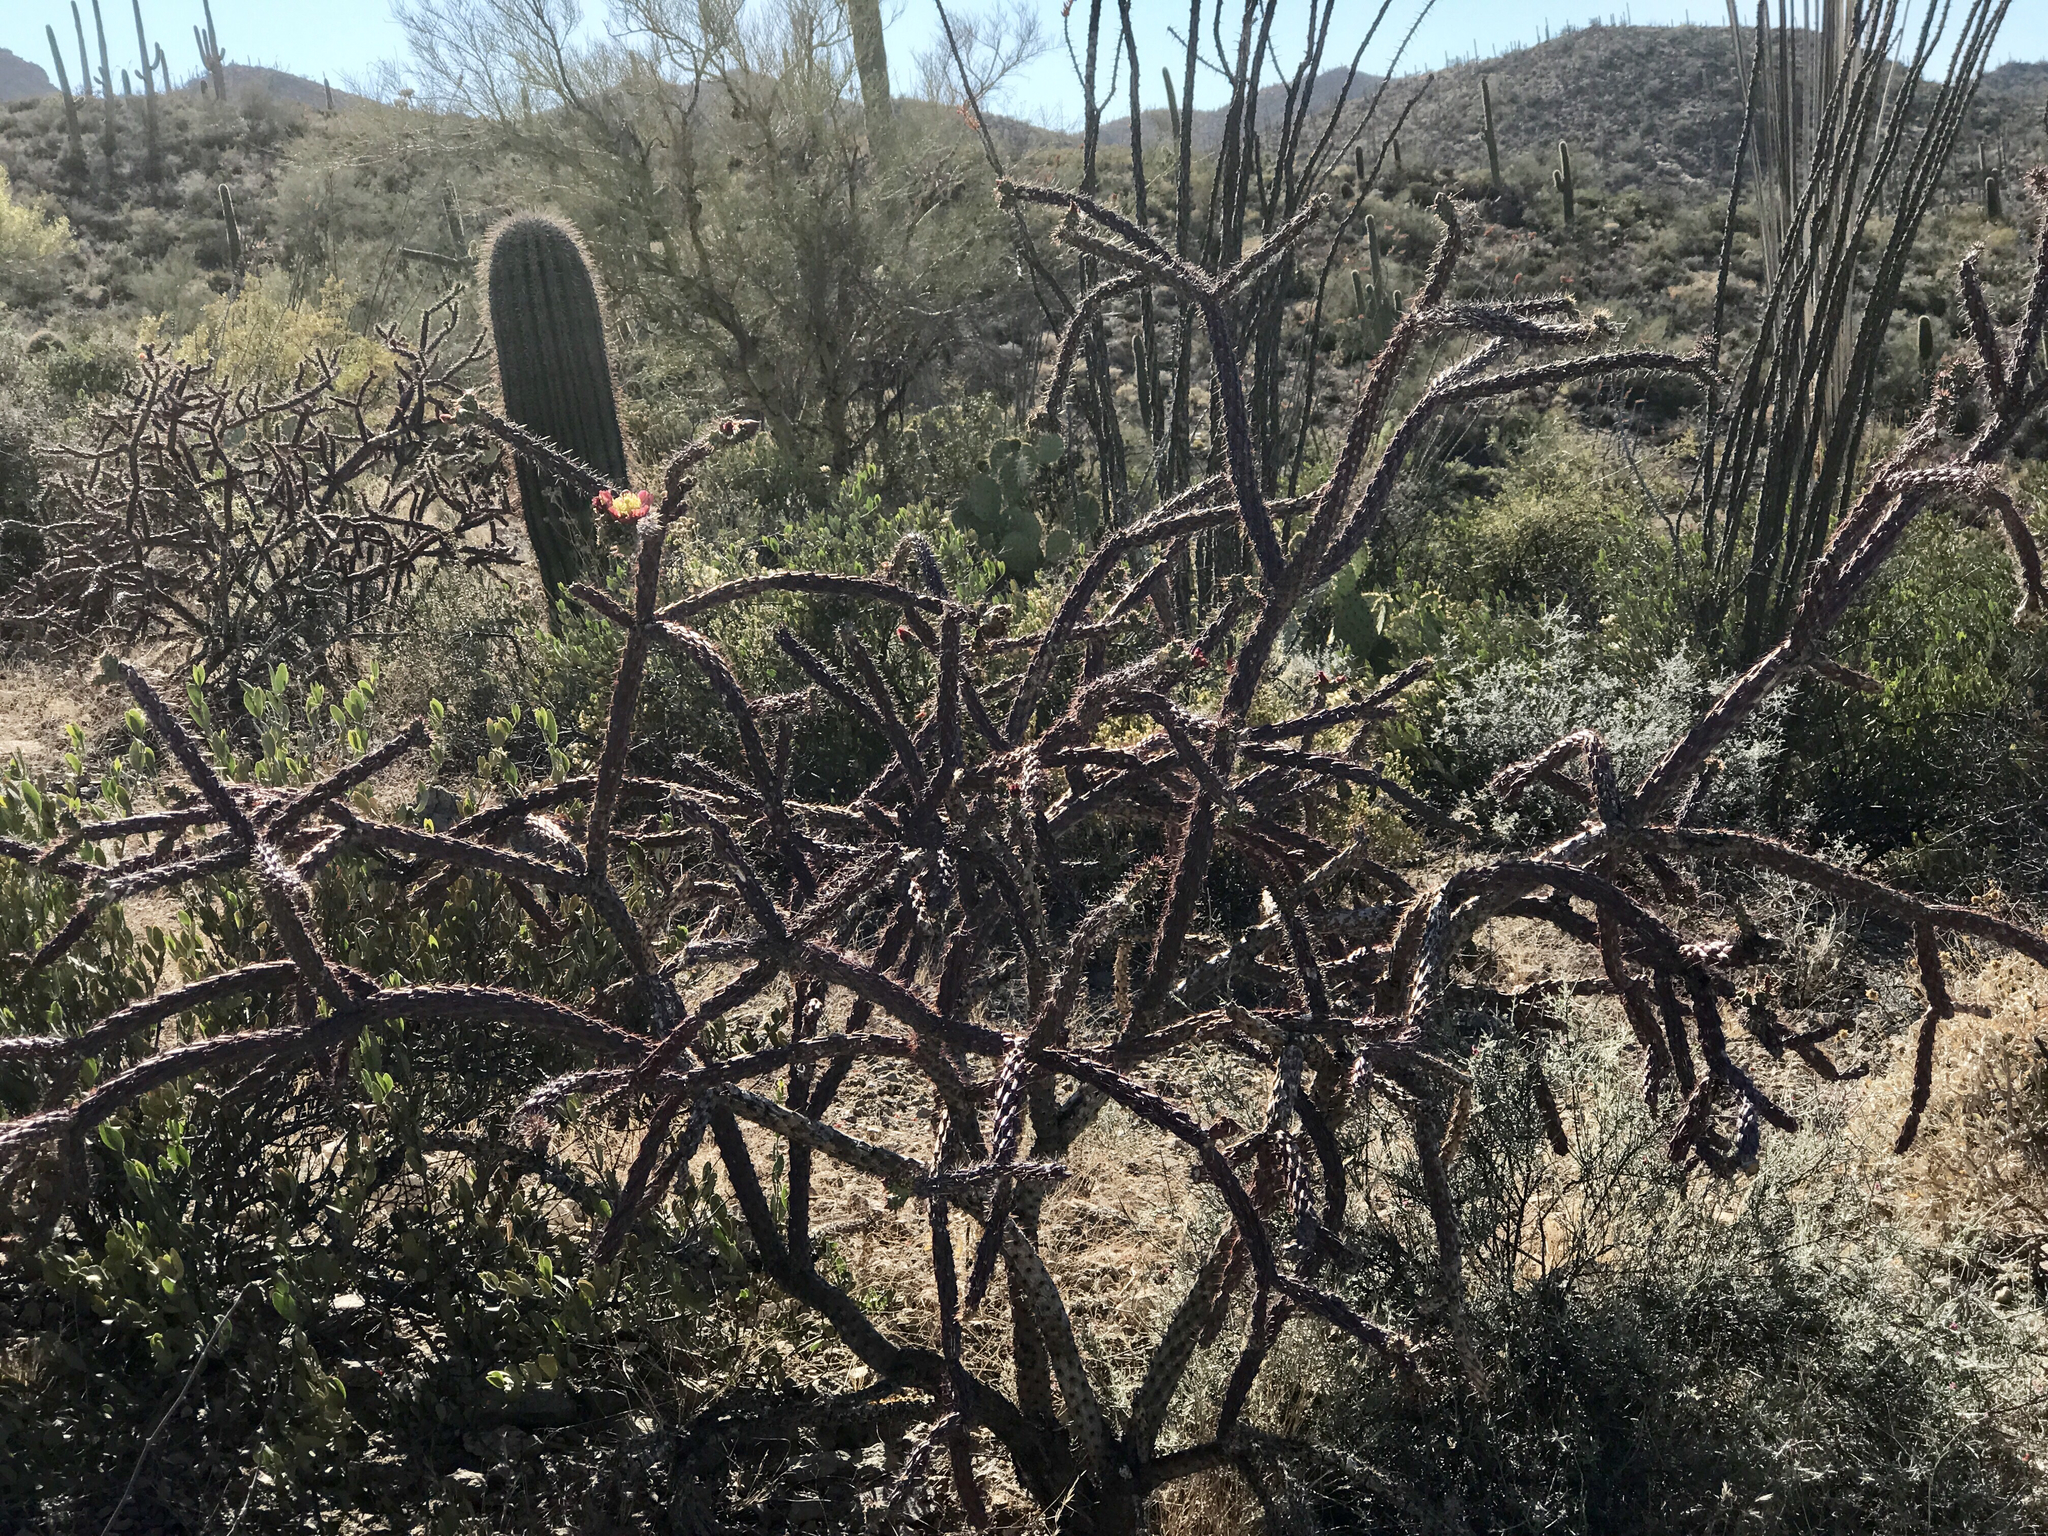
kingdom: Plantae
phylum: Tracheophyta
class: Magnoliopsida
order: Caryophyllales
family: Cactaceae
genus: Cylindropuntia
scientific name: Cylindropuntia thurberi
